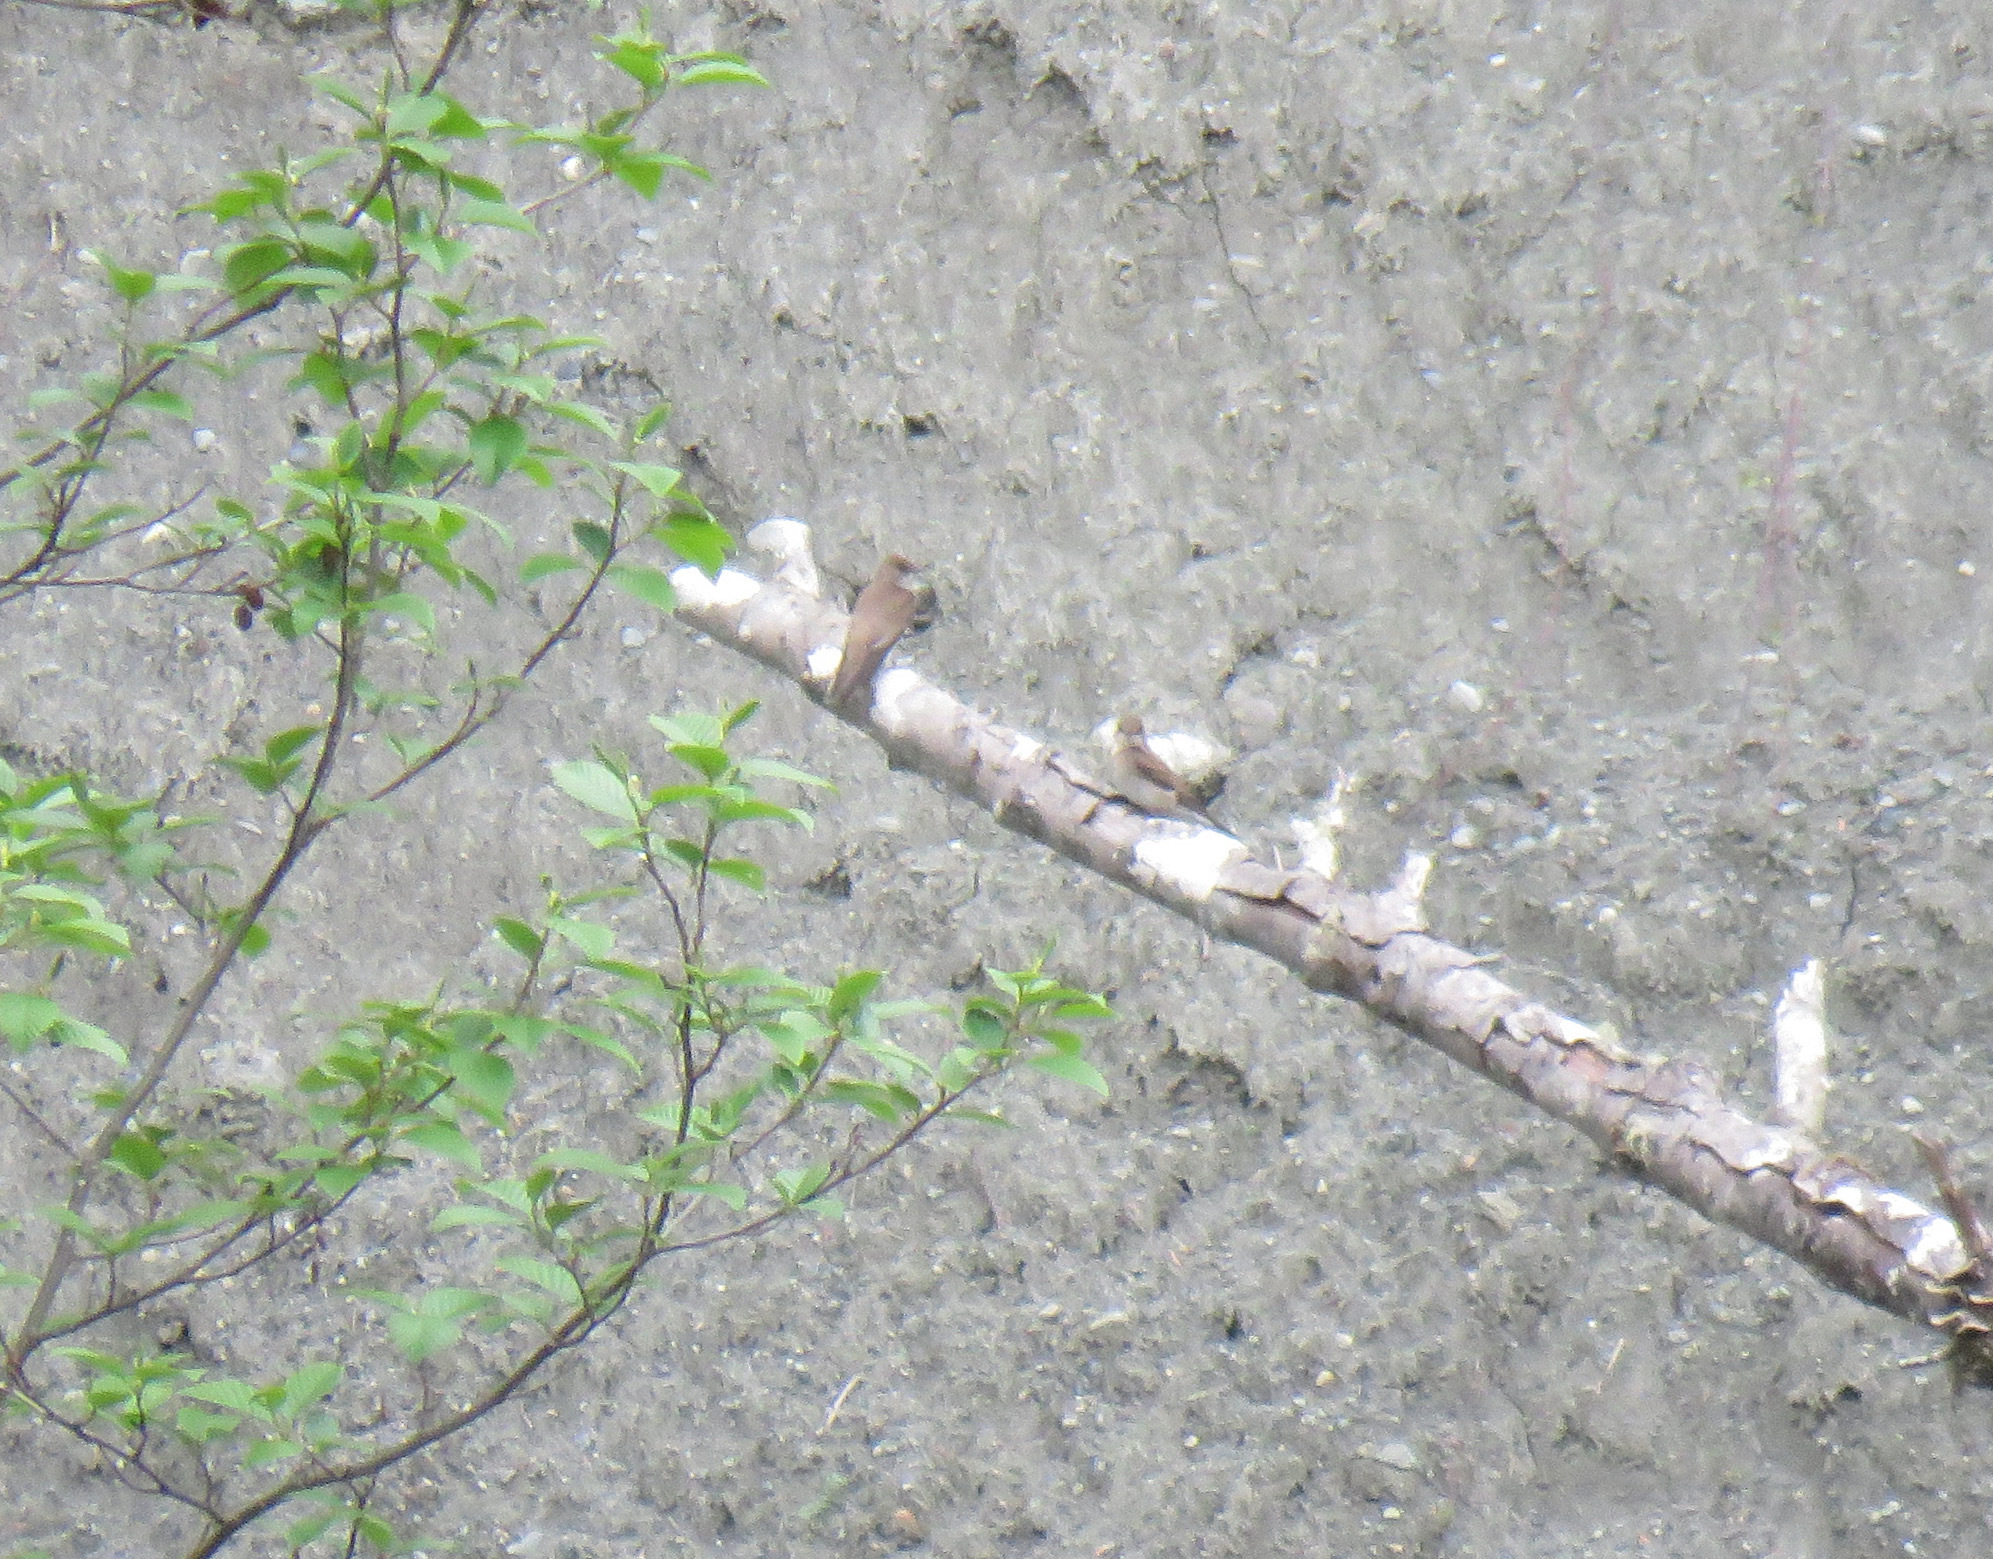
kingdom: Animalia
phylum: Chordata
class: Aves
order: Passeriformes
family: Hirundinidae
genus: Stelgidopteryx
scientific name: Stelgidopteryx serripennis
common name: Northern rough-winged swallow
